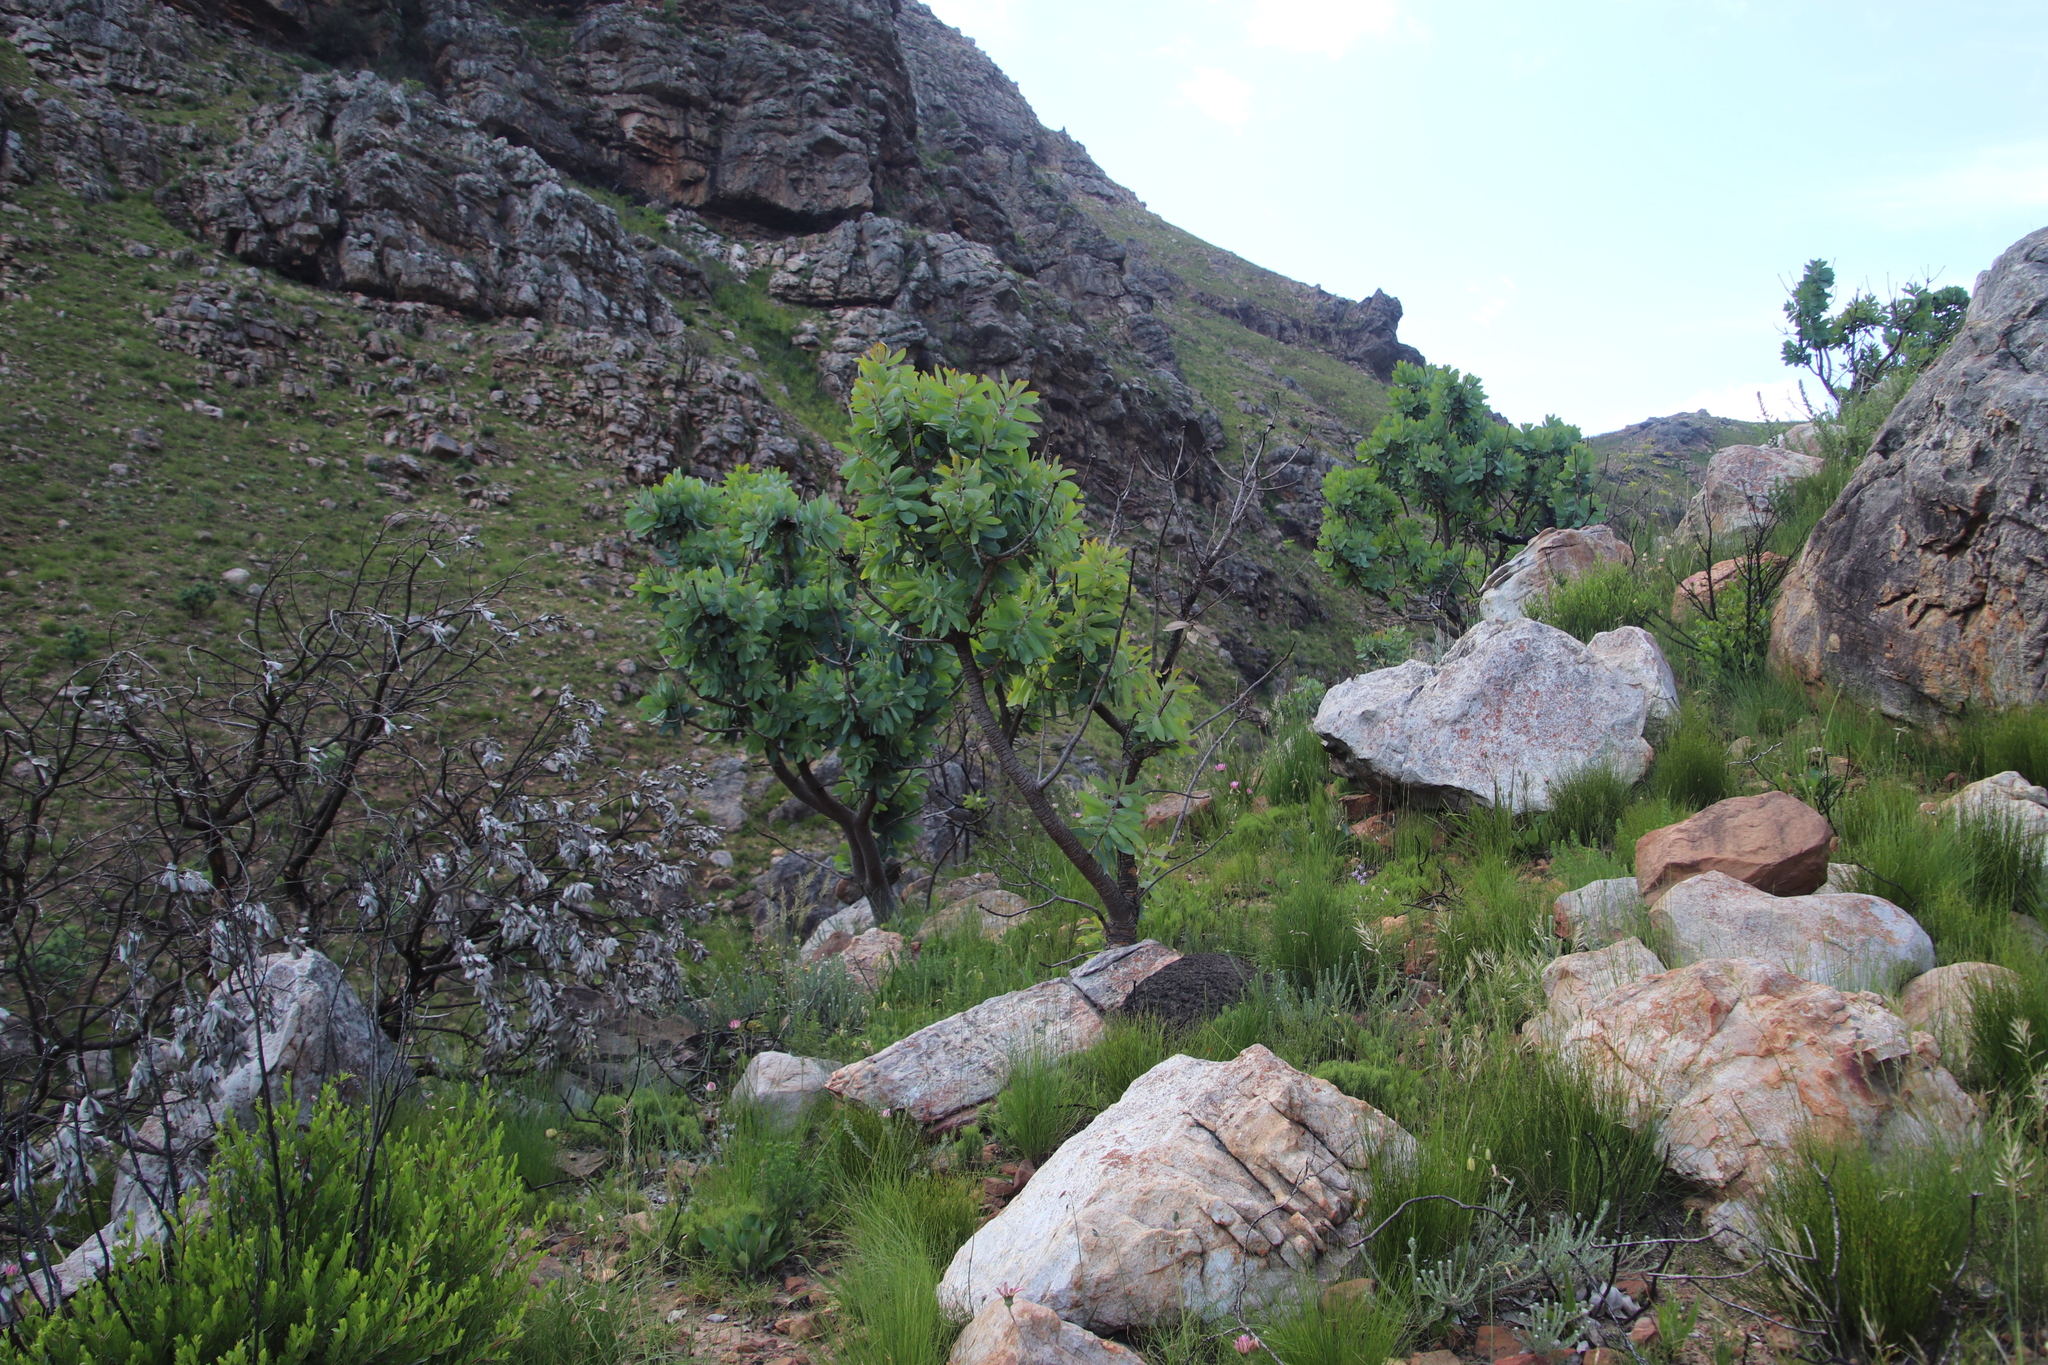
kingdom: Plantae
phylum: Tracheophyta
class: Magnoliopsida
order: Proteales
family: Proteaceae
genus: Protea
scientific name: Protea nitida
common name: Tree protea
